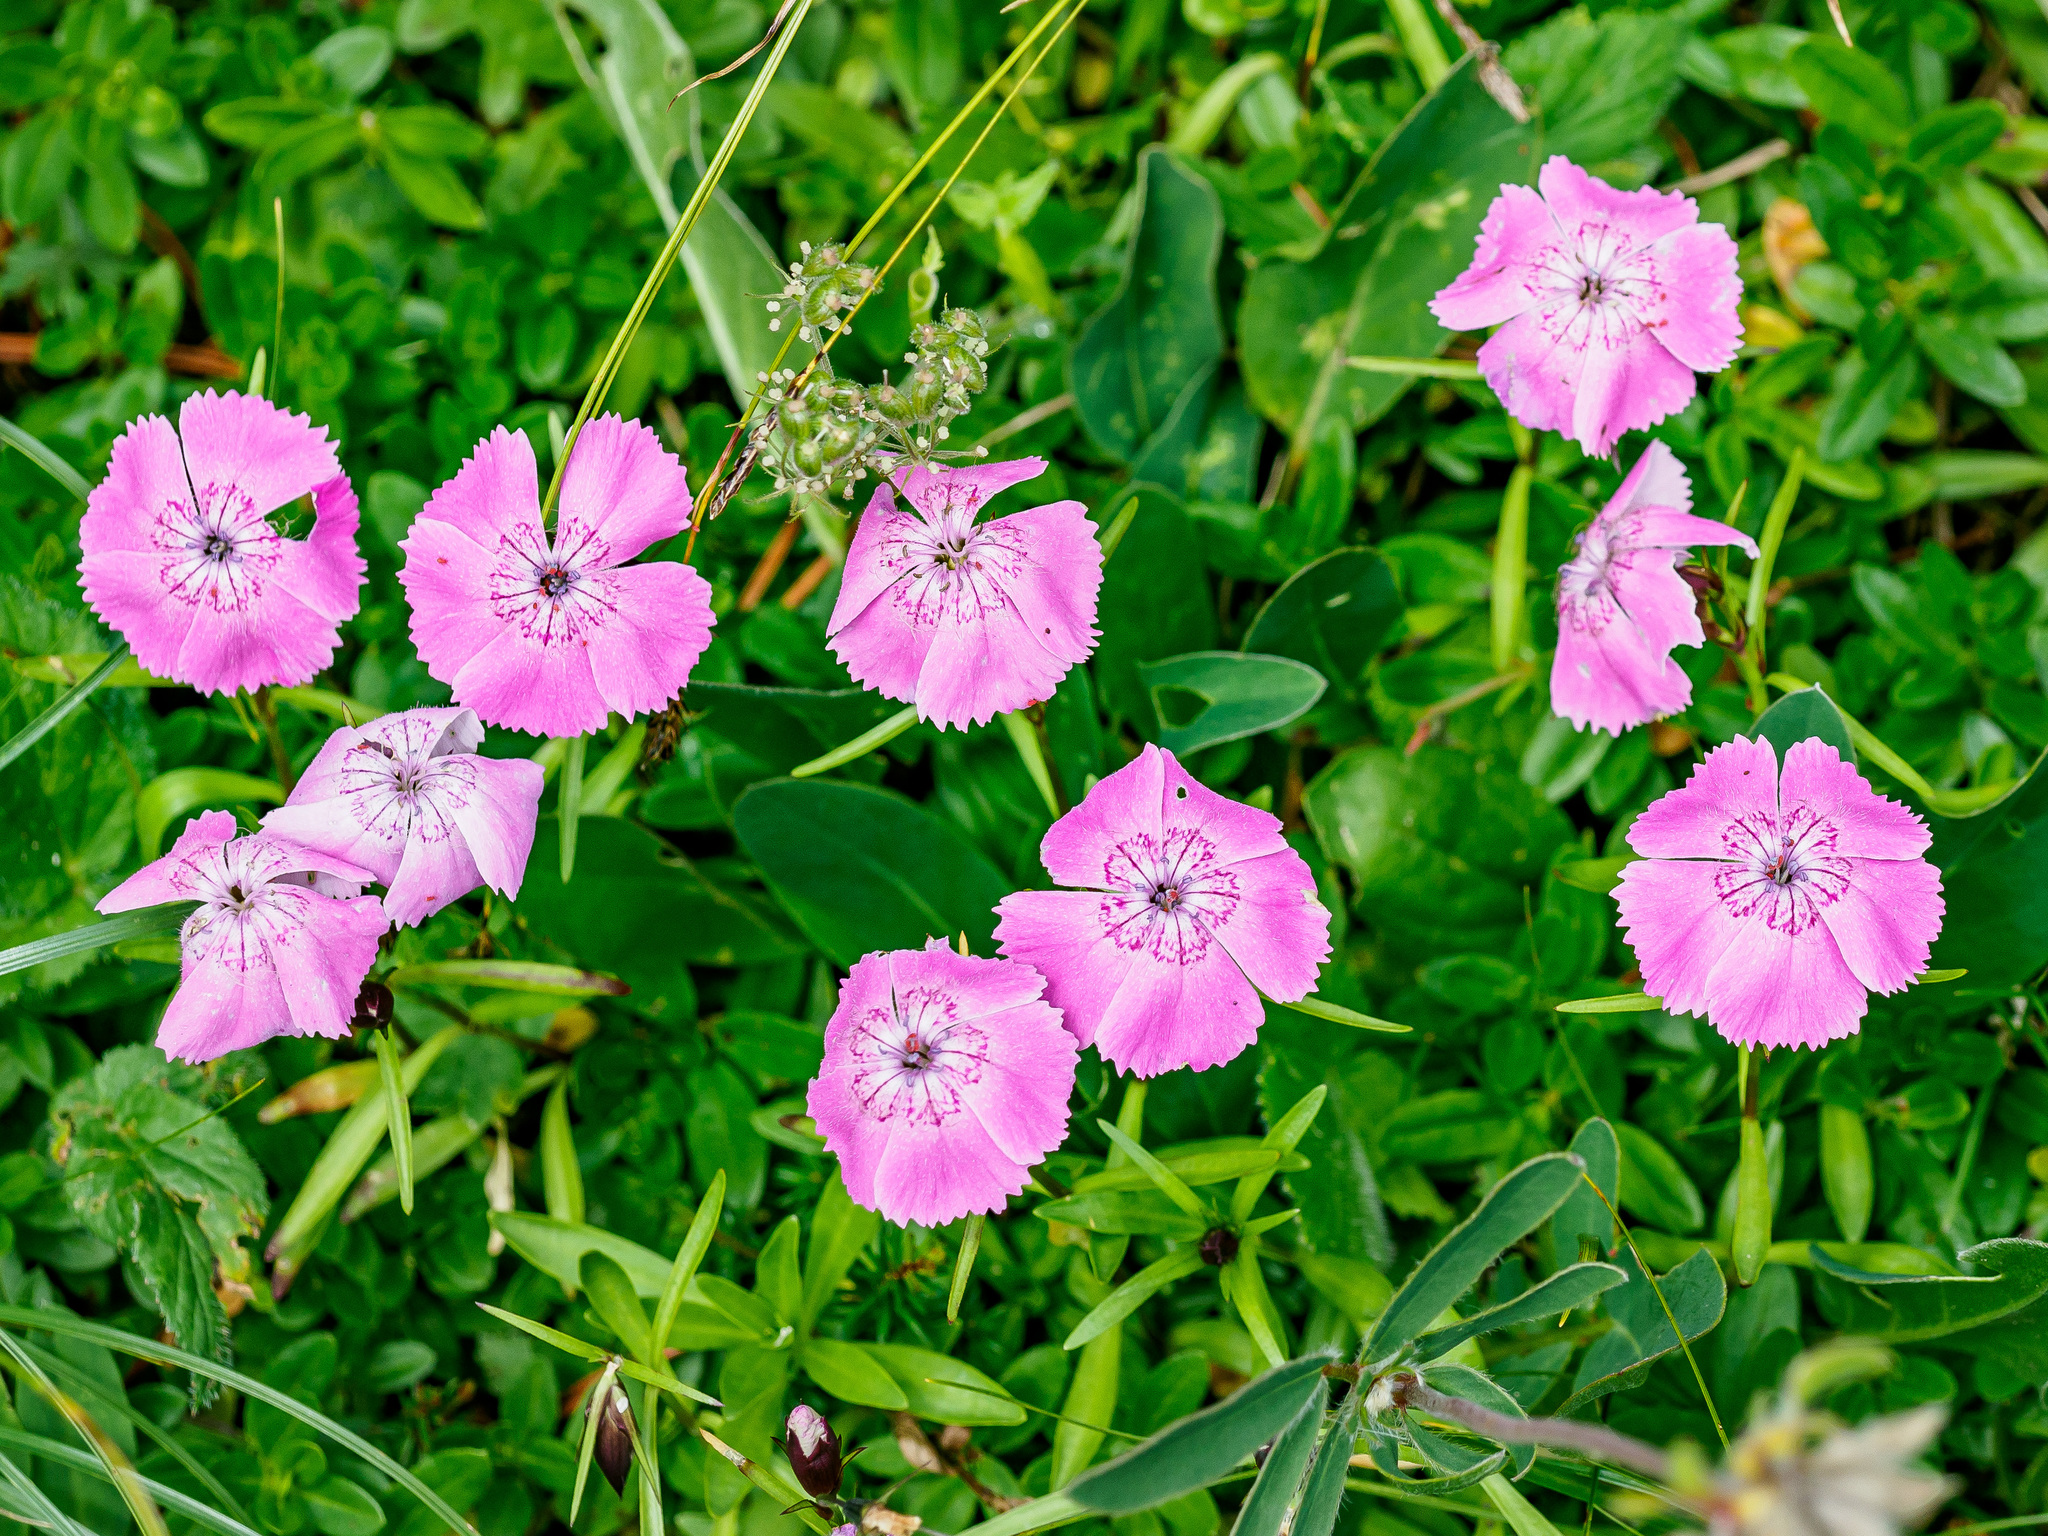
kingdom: Plantae
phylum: Tracheophyta
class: Magnoliopsida
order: Caryophyllales
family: Caryophyllaceae
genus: Dianthus
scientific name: Dianthus alpinus
